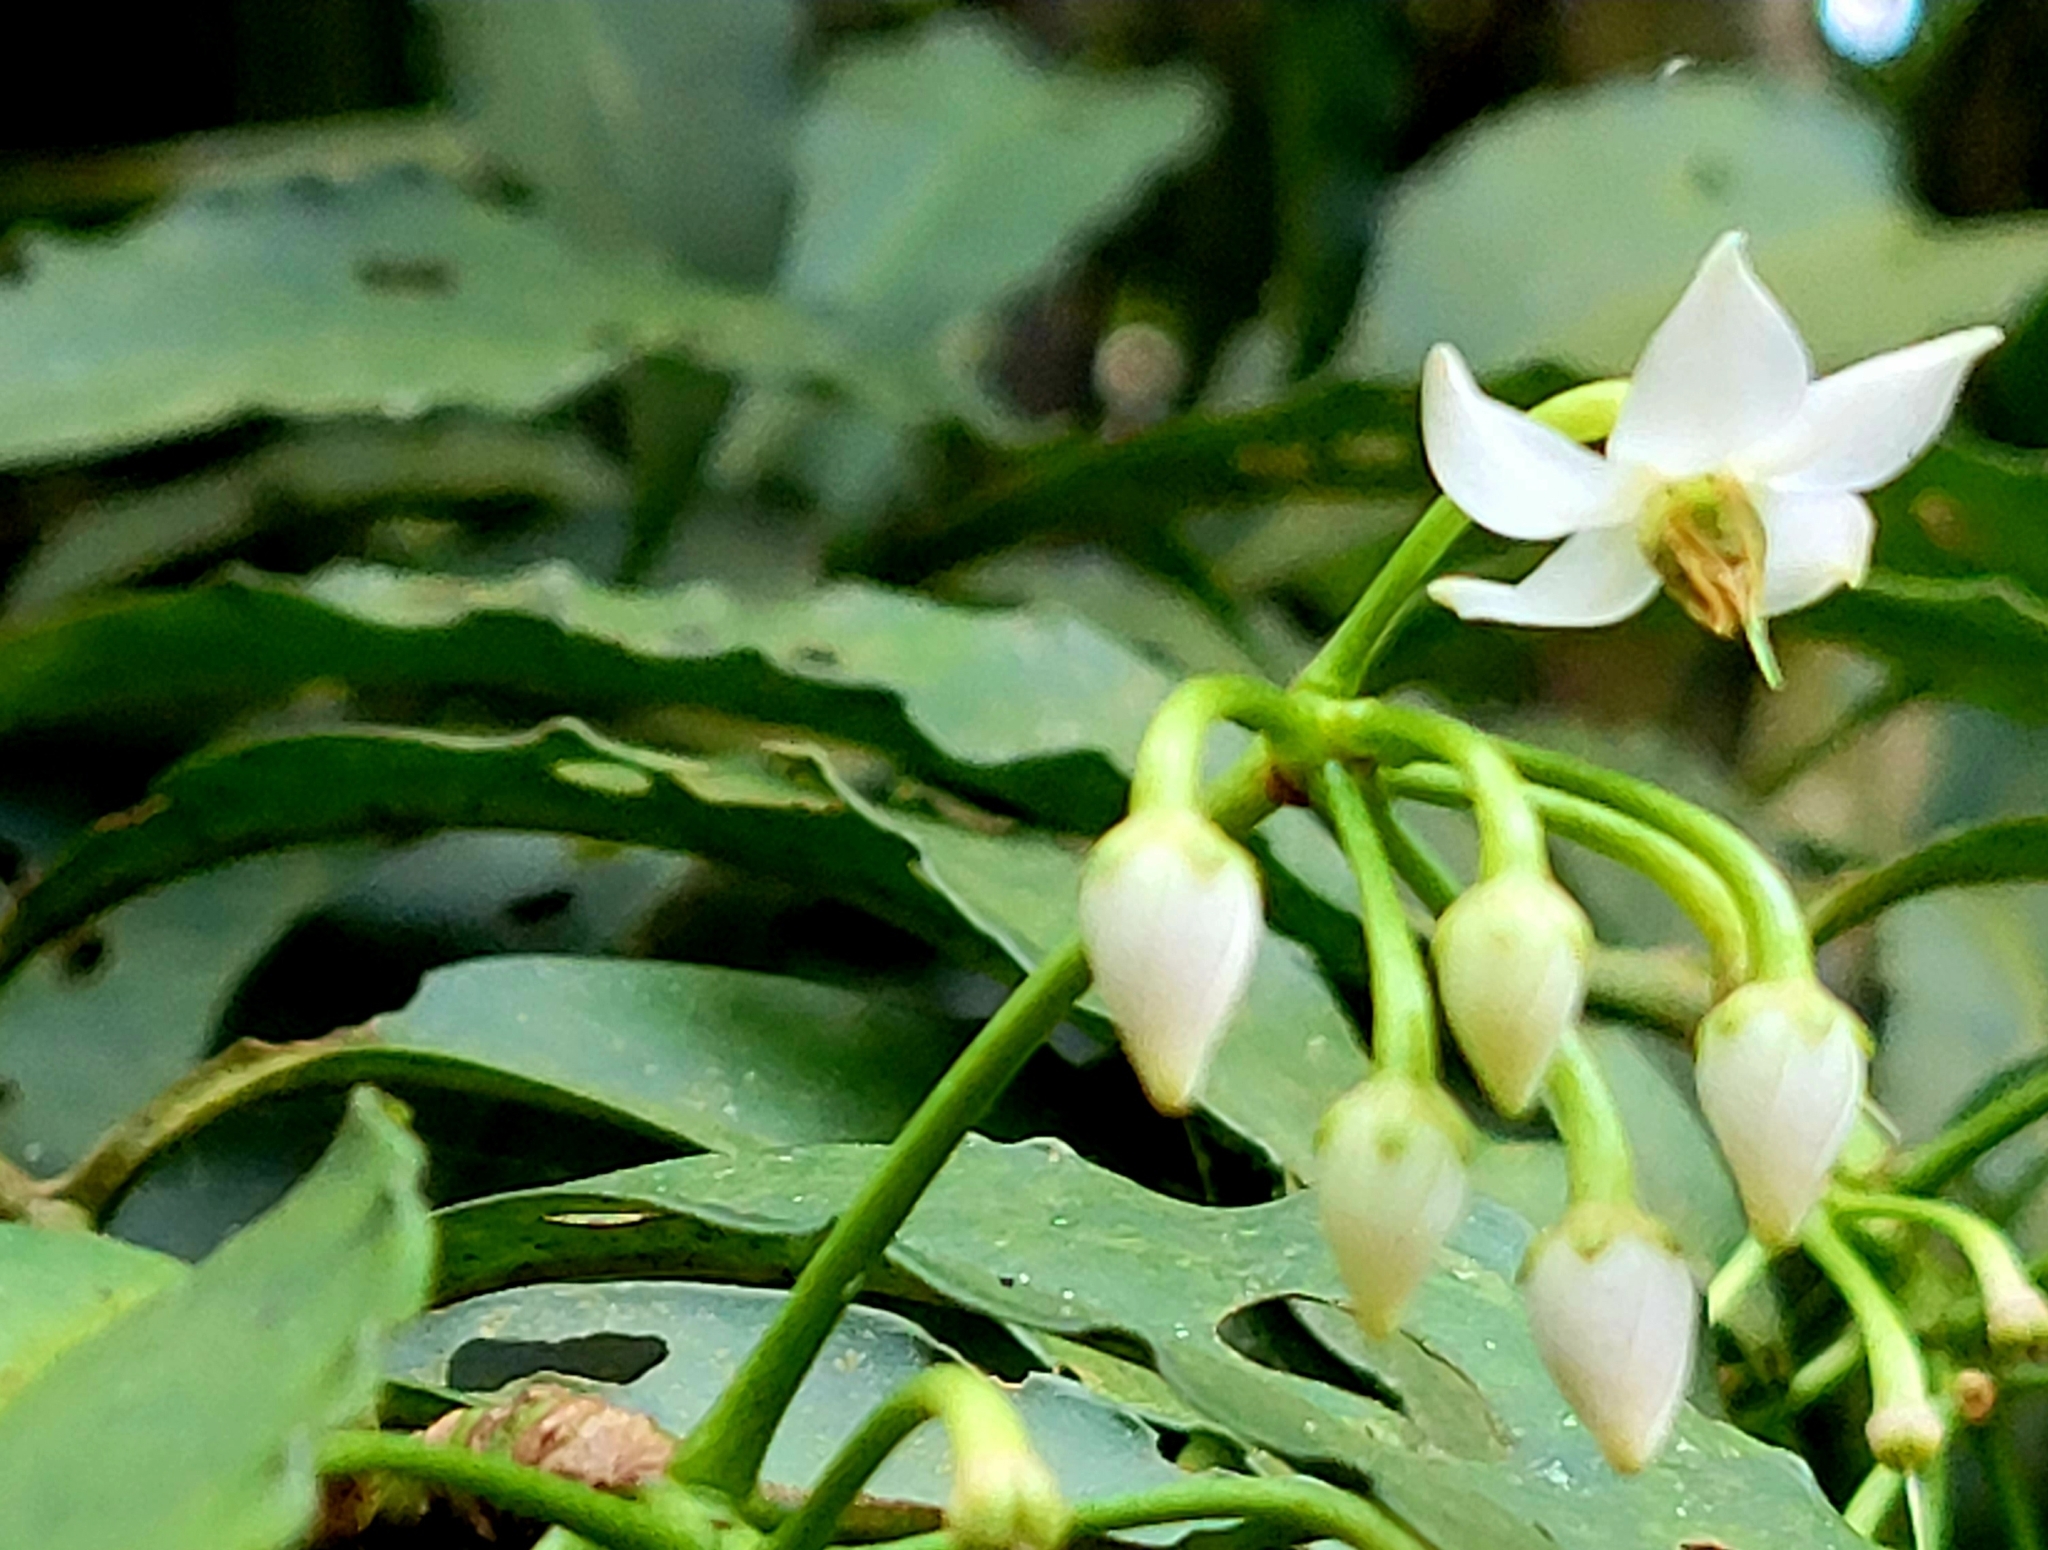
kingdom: Plantae
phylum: Tracheophyta
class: Magnoliopsida
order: Ericales
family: Primulaceae
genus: Ardisia
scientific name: Ardisia polysticta
